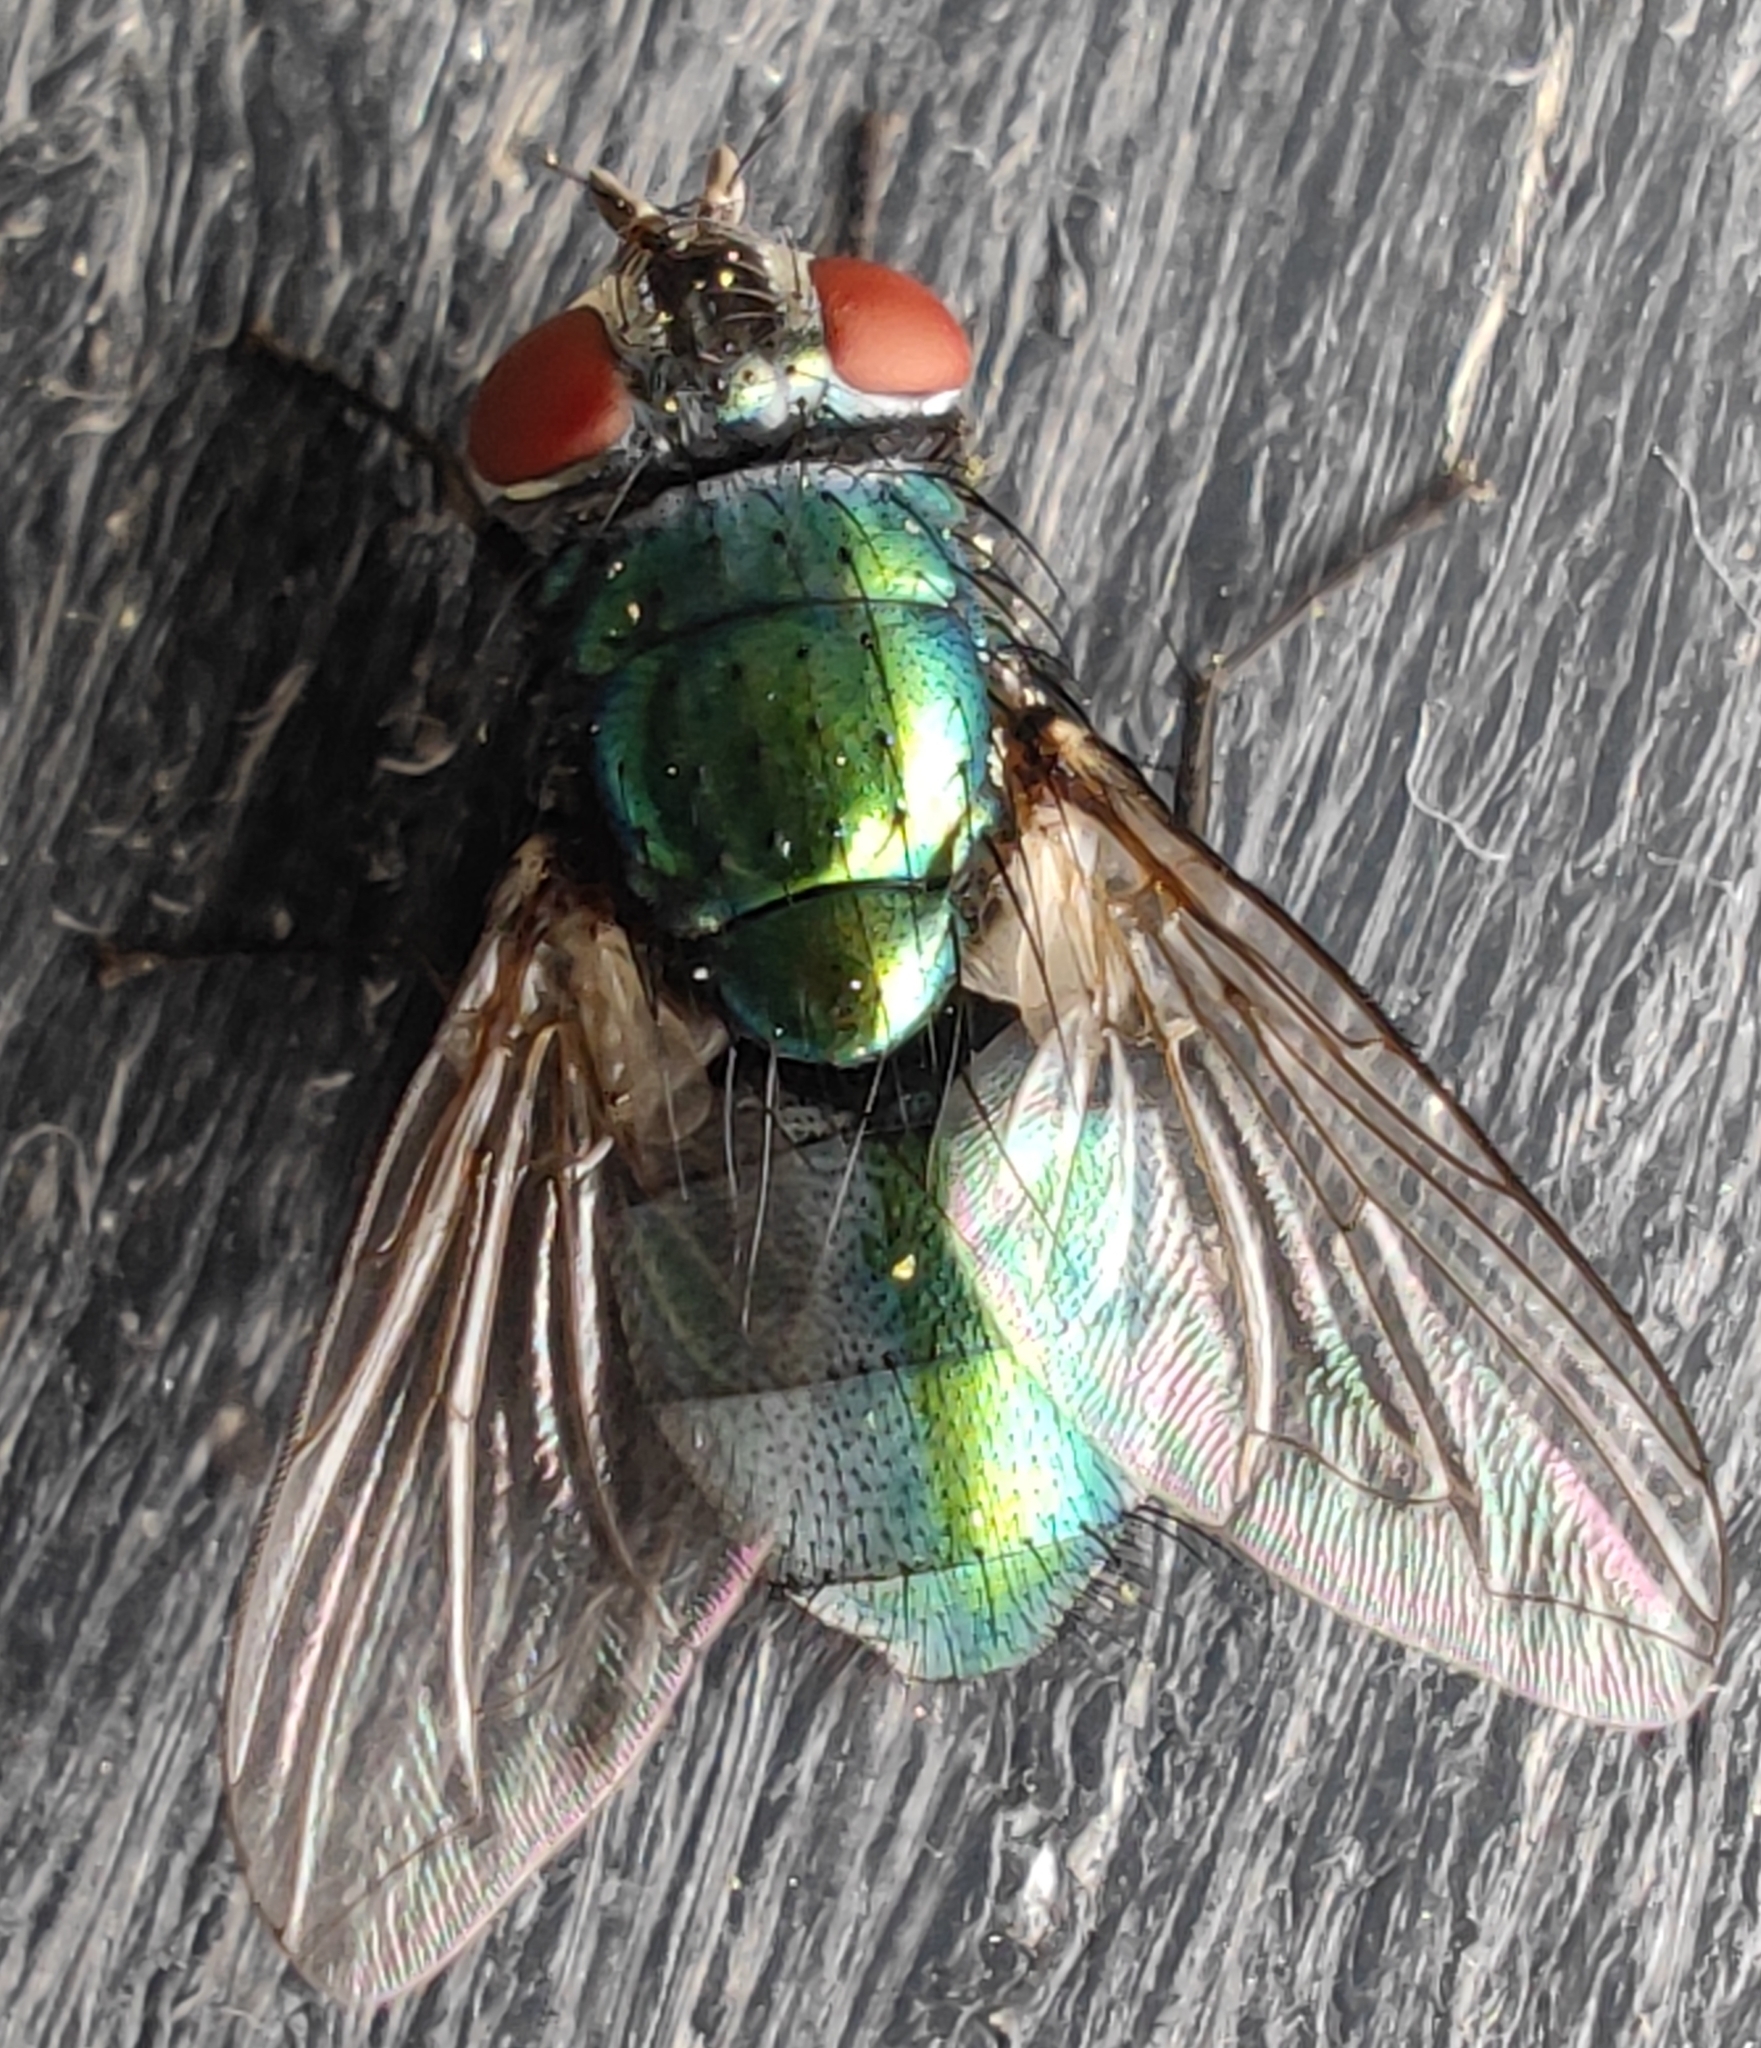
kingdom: Animalia
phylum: Arthropoda
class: Insecta
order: Diptera
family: Calliphoridae
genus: Lucilia
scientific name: Lucilia sericata
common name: Blow fly
